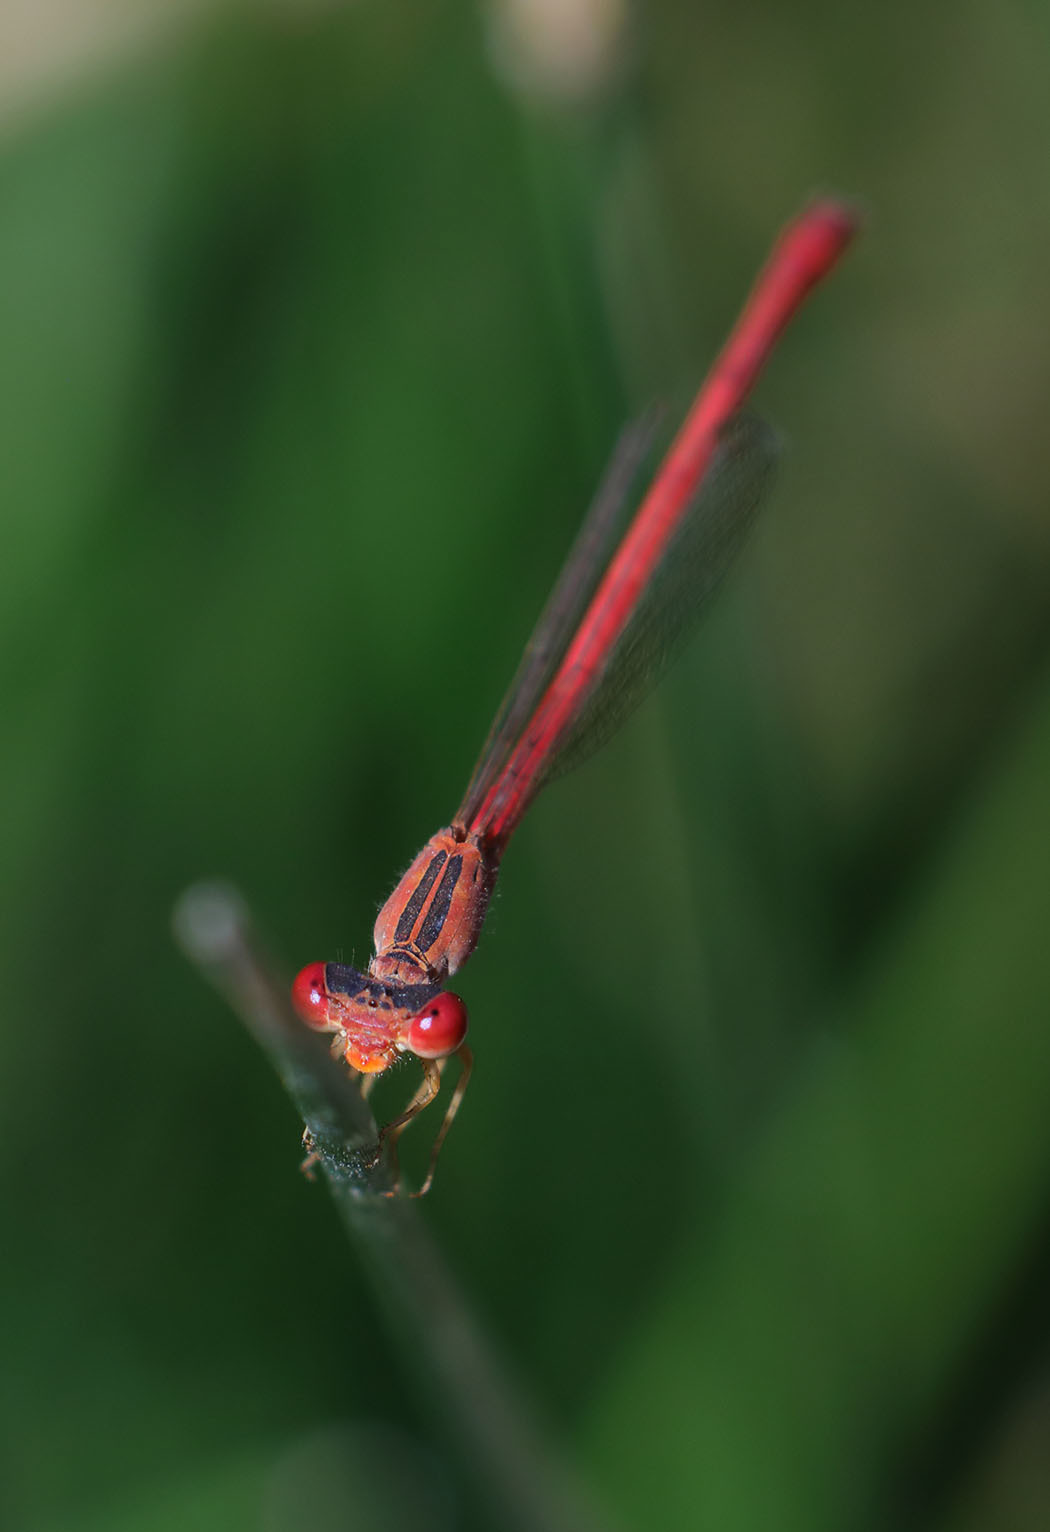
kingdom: Animalia
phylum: Arthropoda
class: Insecta
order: Odonata
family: Coenagrionidae
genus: Telebasis
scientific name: Telebasis salva
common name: Desert firetail
